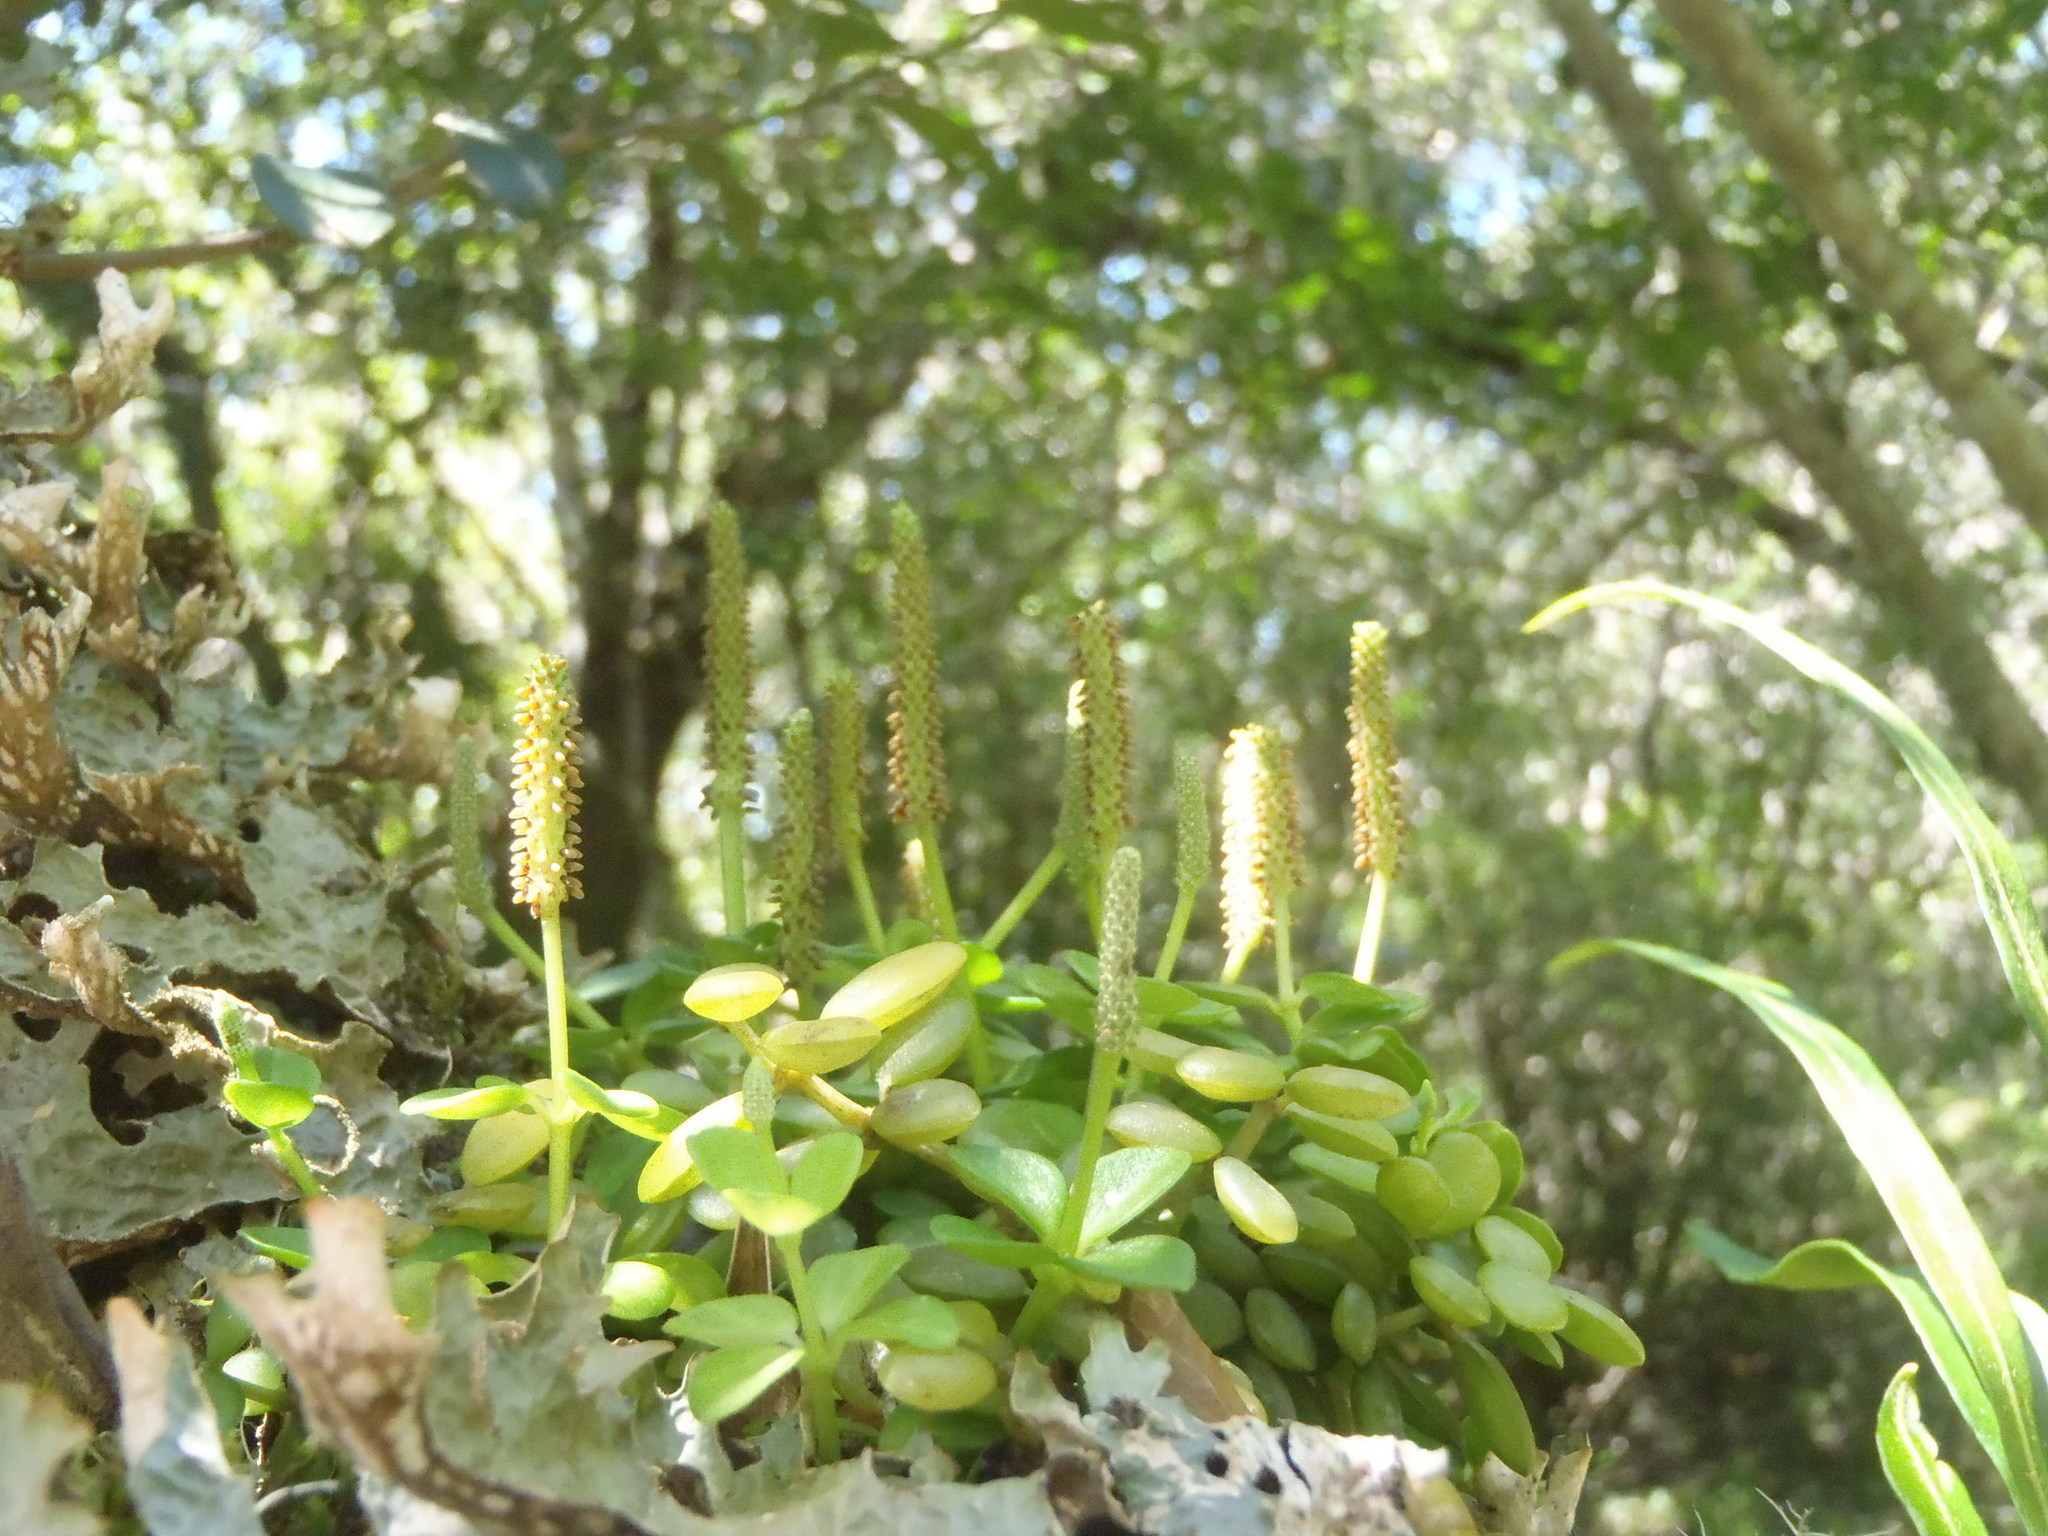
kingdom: Plantae
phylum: Tracheophyta
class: Magnoliopsida
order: Piperales
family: Piperaceae
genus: Peperomia
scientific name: Peperomia tetraphylla
